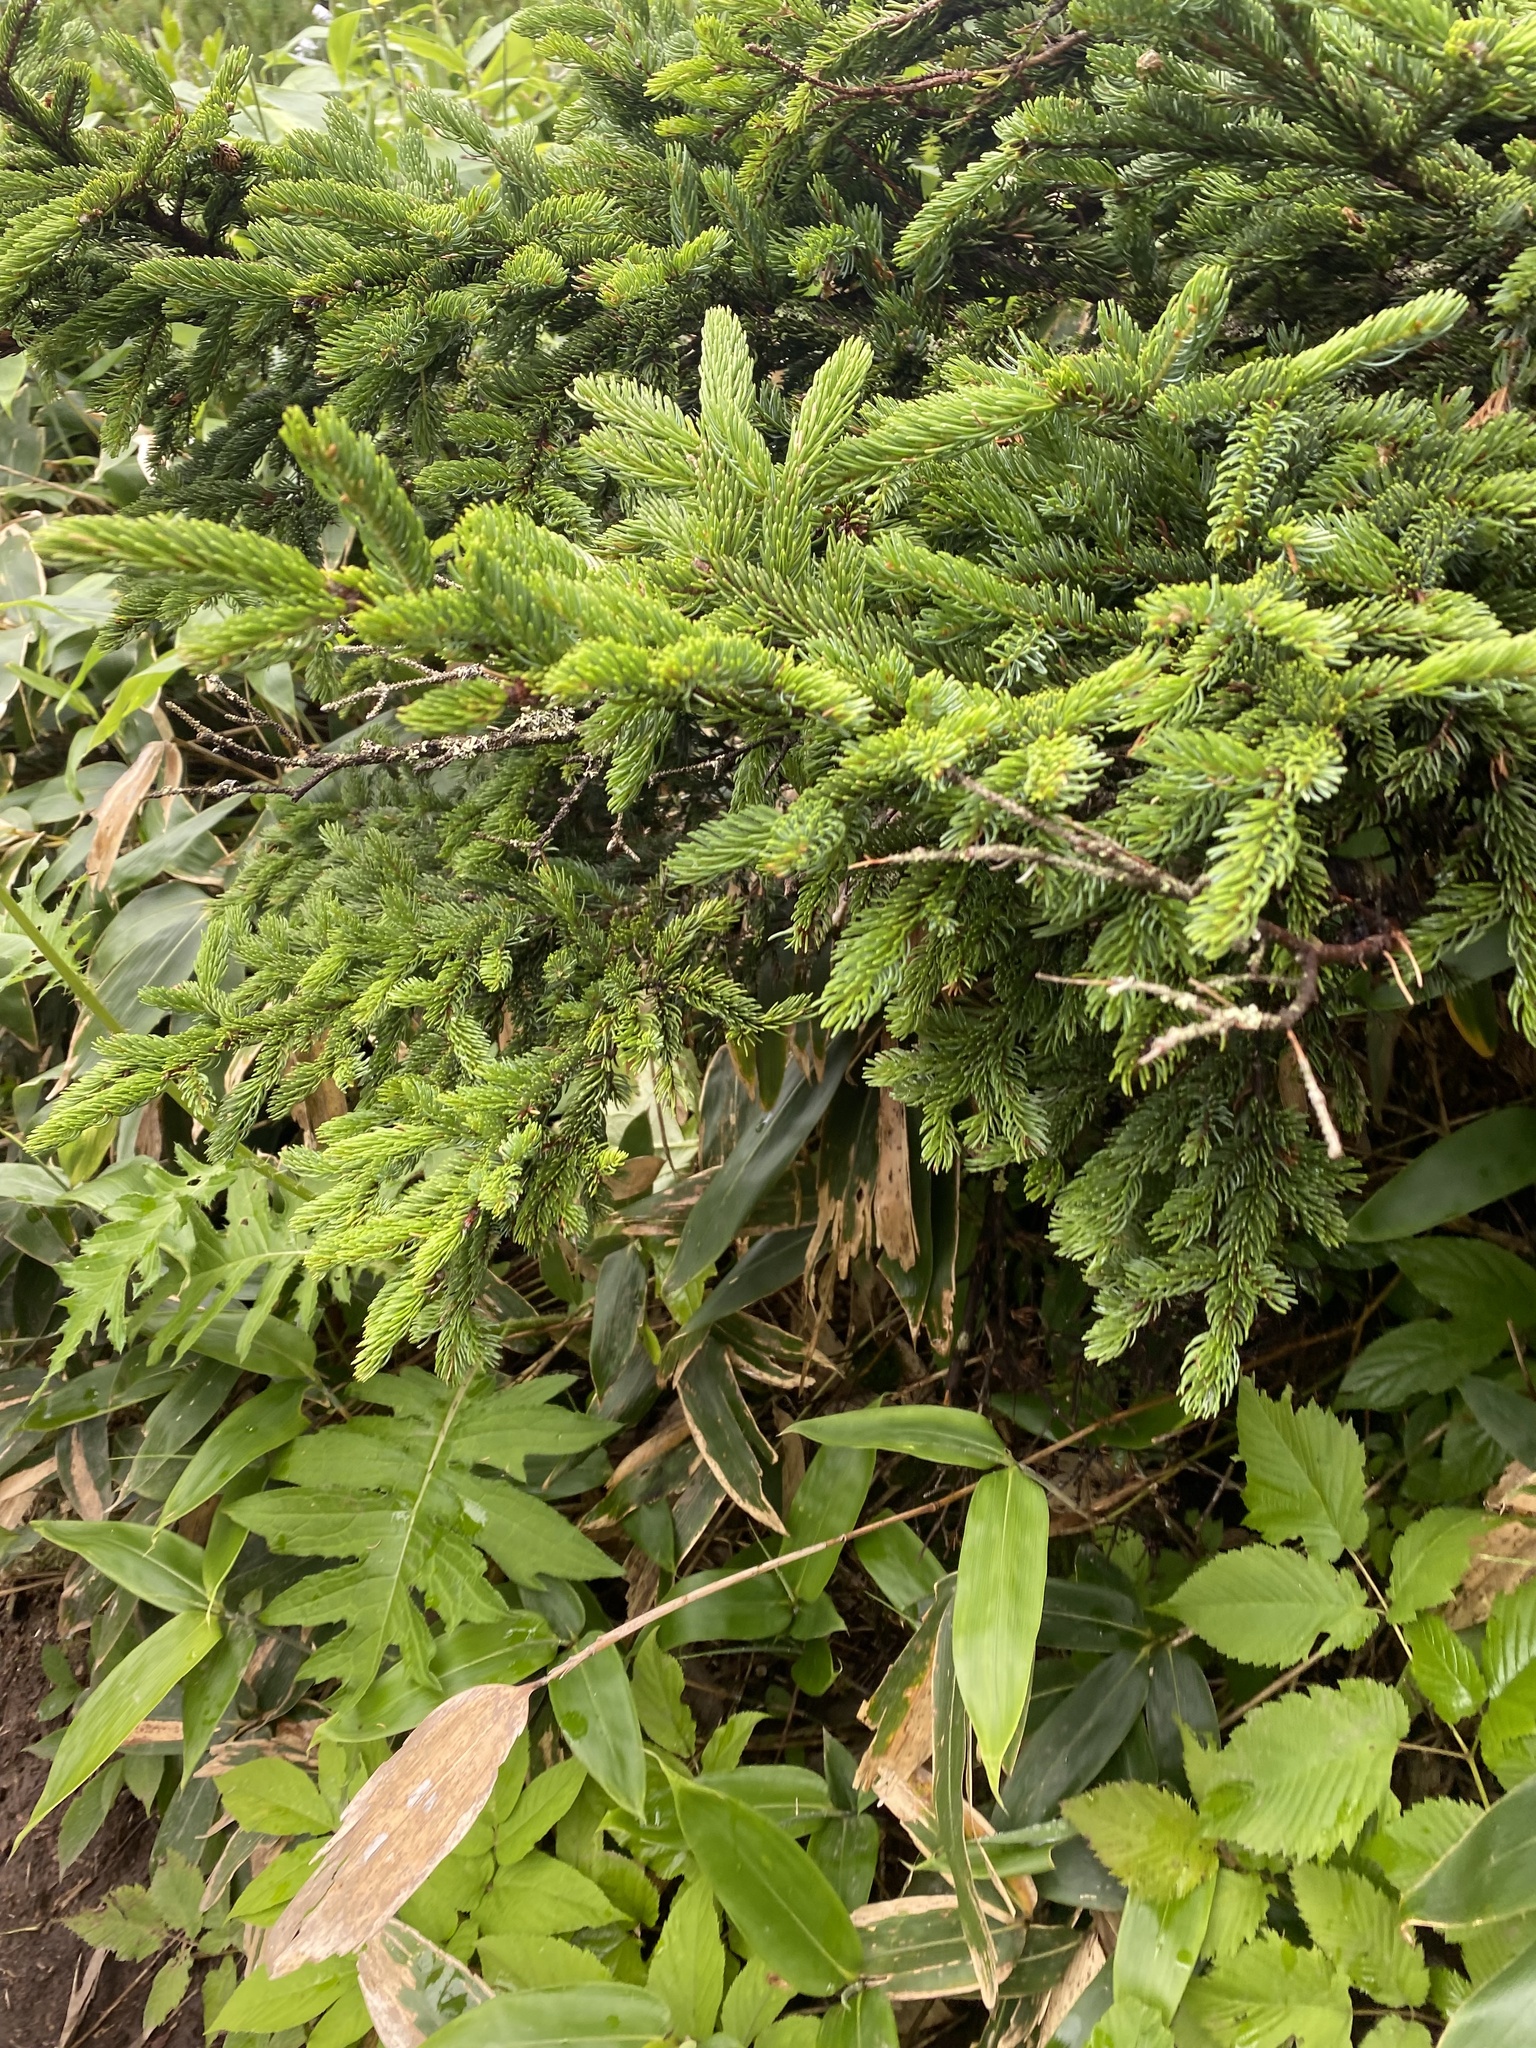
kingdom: Plantae
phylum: Tracheophyta
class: Pinopsida
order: Pinales
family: Pinaceae
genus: Picea
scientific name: Picea jezoensis
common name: Yeddo spruce
